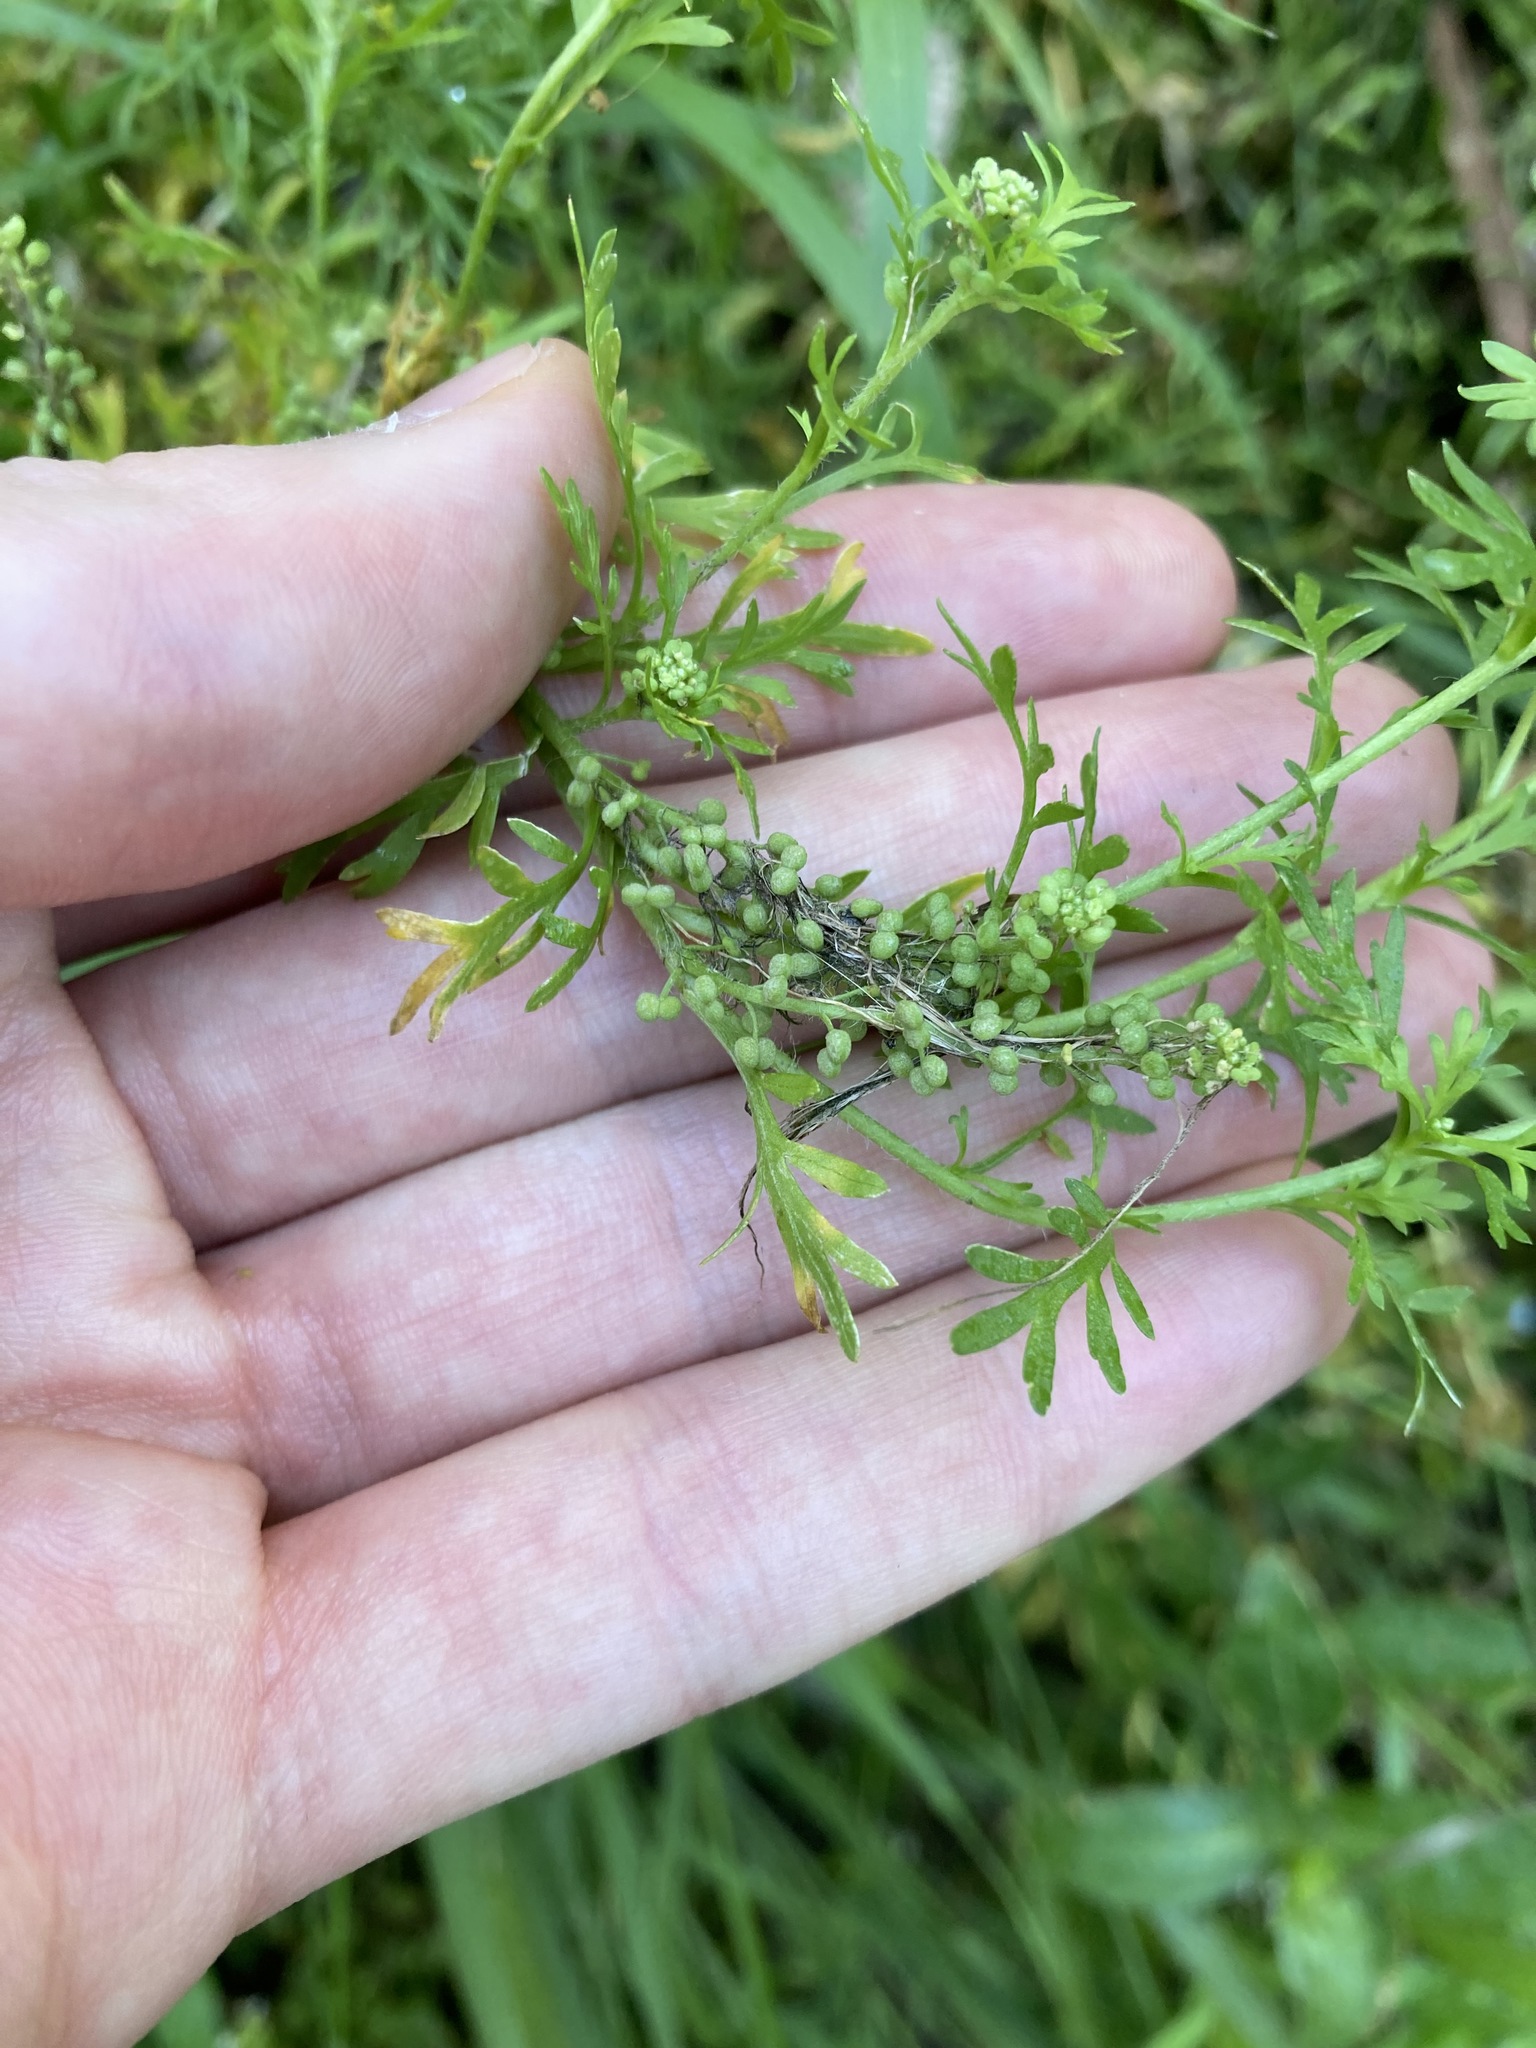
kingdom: Plantae
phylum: Tracheophyta
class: Magnoliopsida
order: Brassicales
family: Brassicaceae
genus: Lepidium
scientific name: Lepidium didymum
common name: Lesser swinecress
